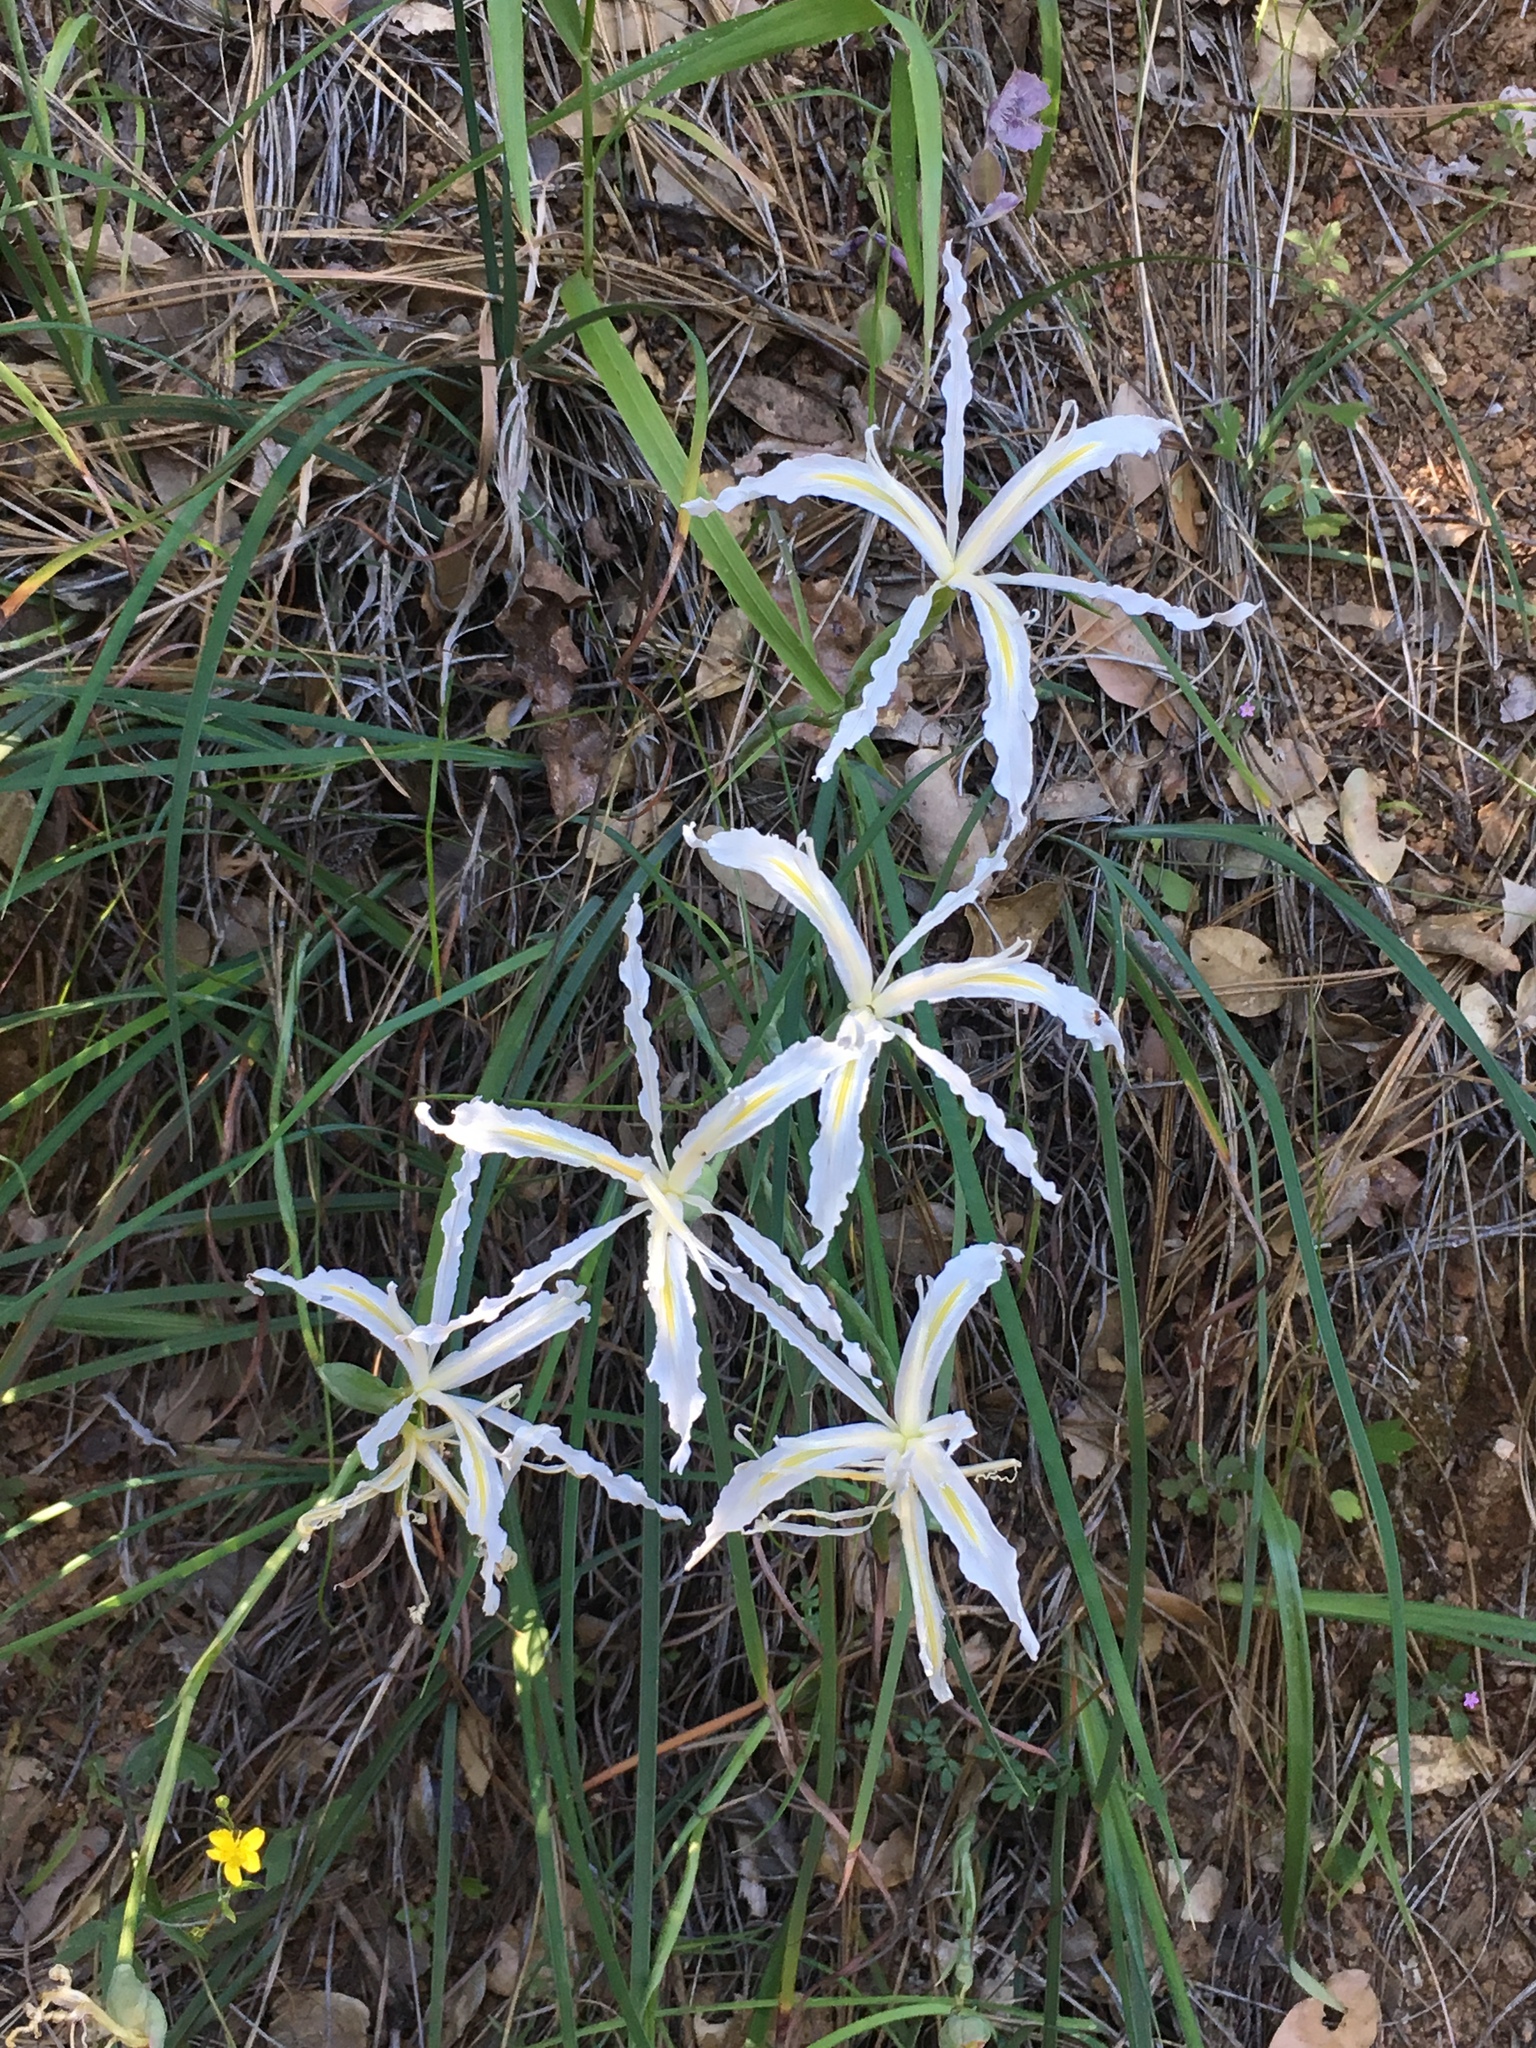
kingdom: Plantae
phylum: Tracheophyta
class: Liliopsida
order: Asparagales
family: Iridaceae
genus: Iris
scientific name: Iris tenuissima
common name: Long-tube iris
